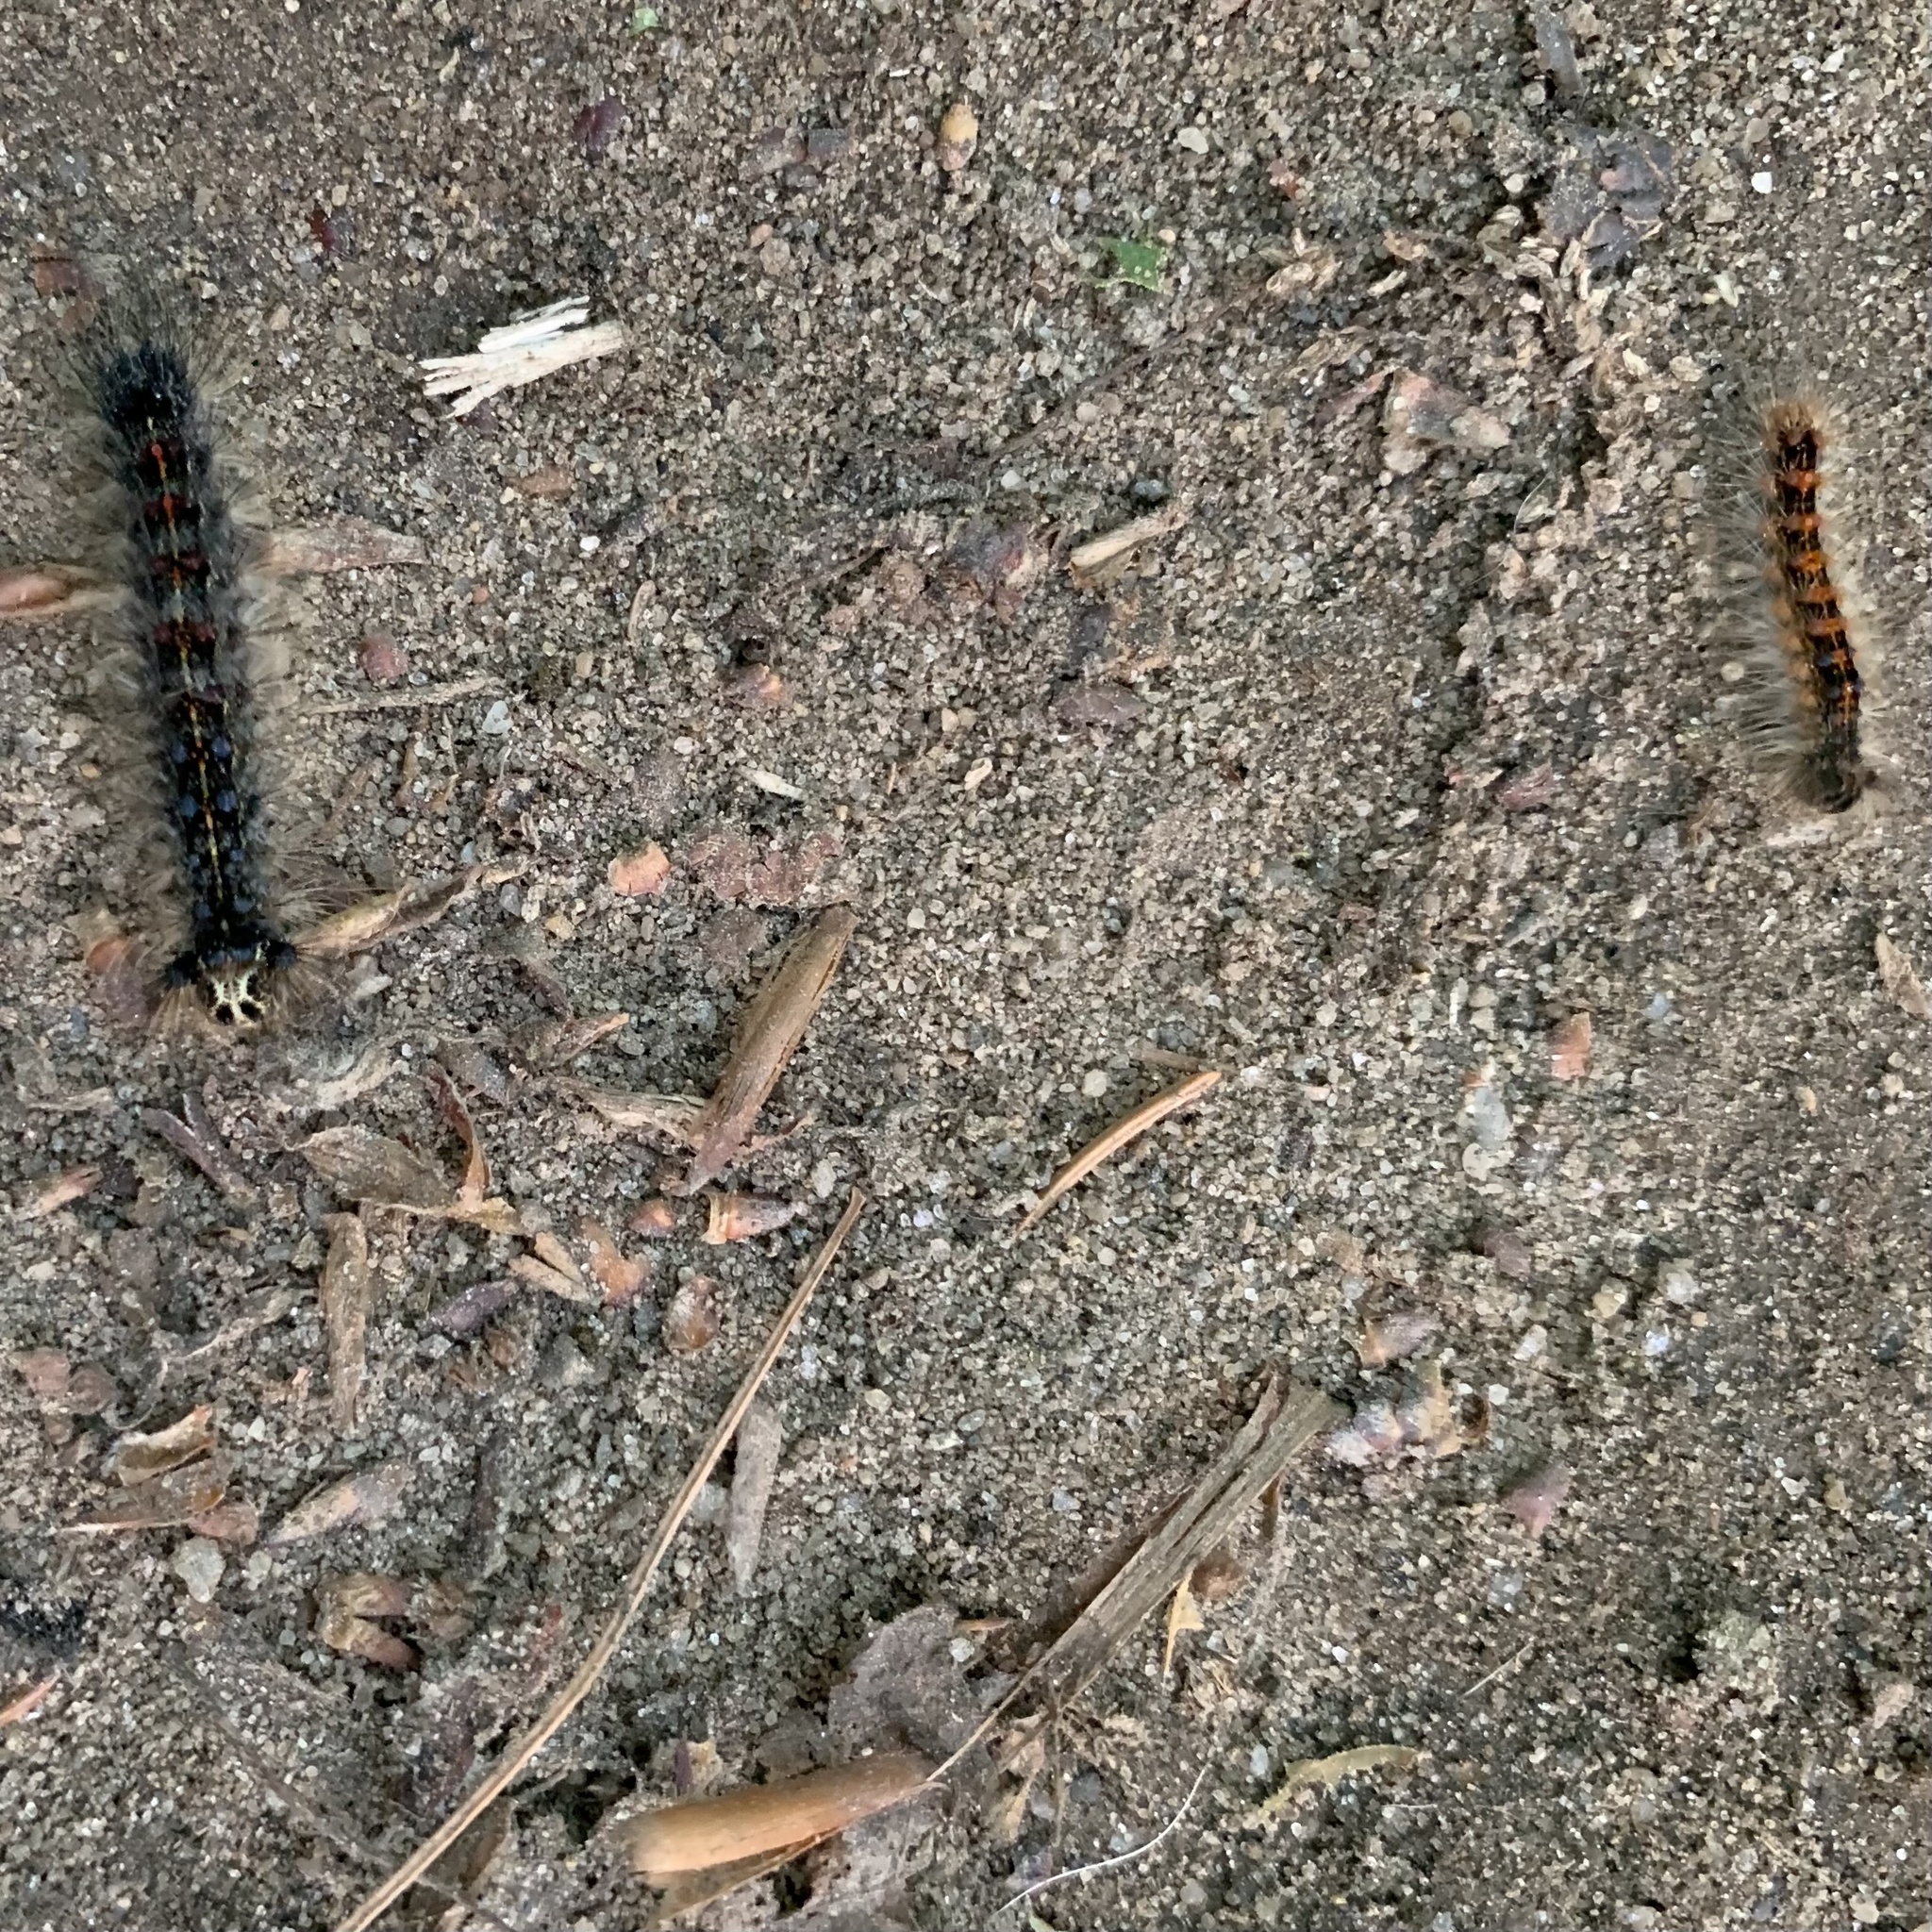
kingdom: Animalia
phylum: Arthropoda
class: Insecta
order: Lepidoptera
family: Erebidae
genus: Lymantria
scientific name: Lymantria dispar
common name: Gypsy moth
